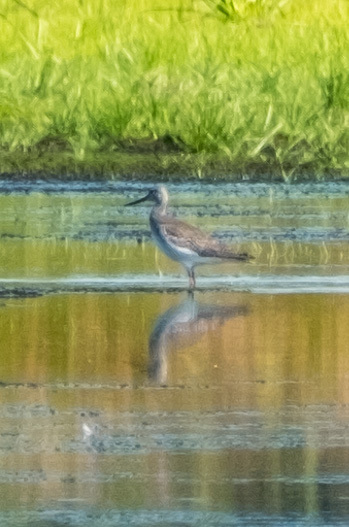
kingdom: Animalia
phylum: Chordata
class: Aves
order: Charadriiformes
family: Scolopacidae
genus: Tringa
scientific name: Tringa melanoleuca
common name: Greater yellowlegs
